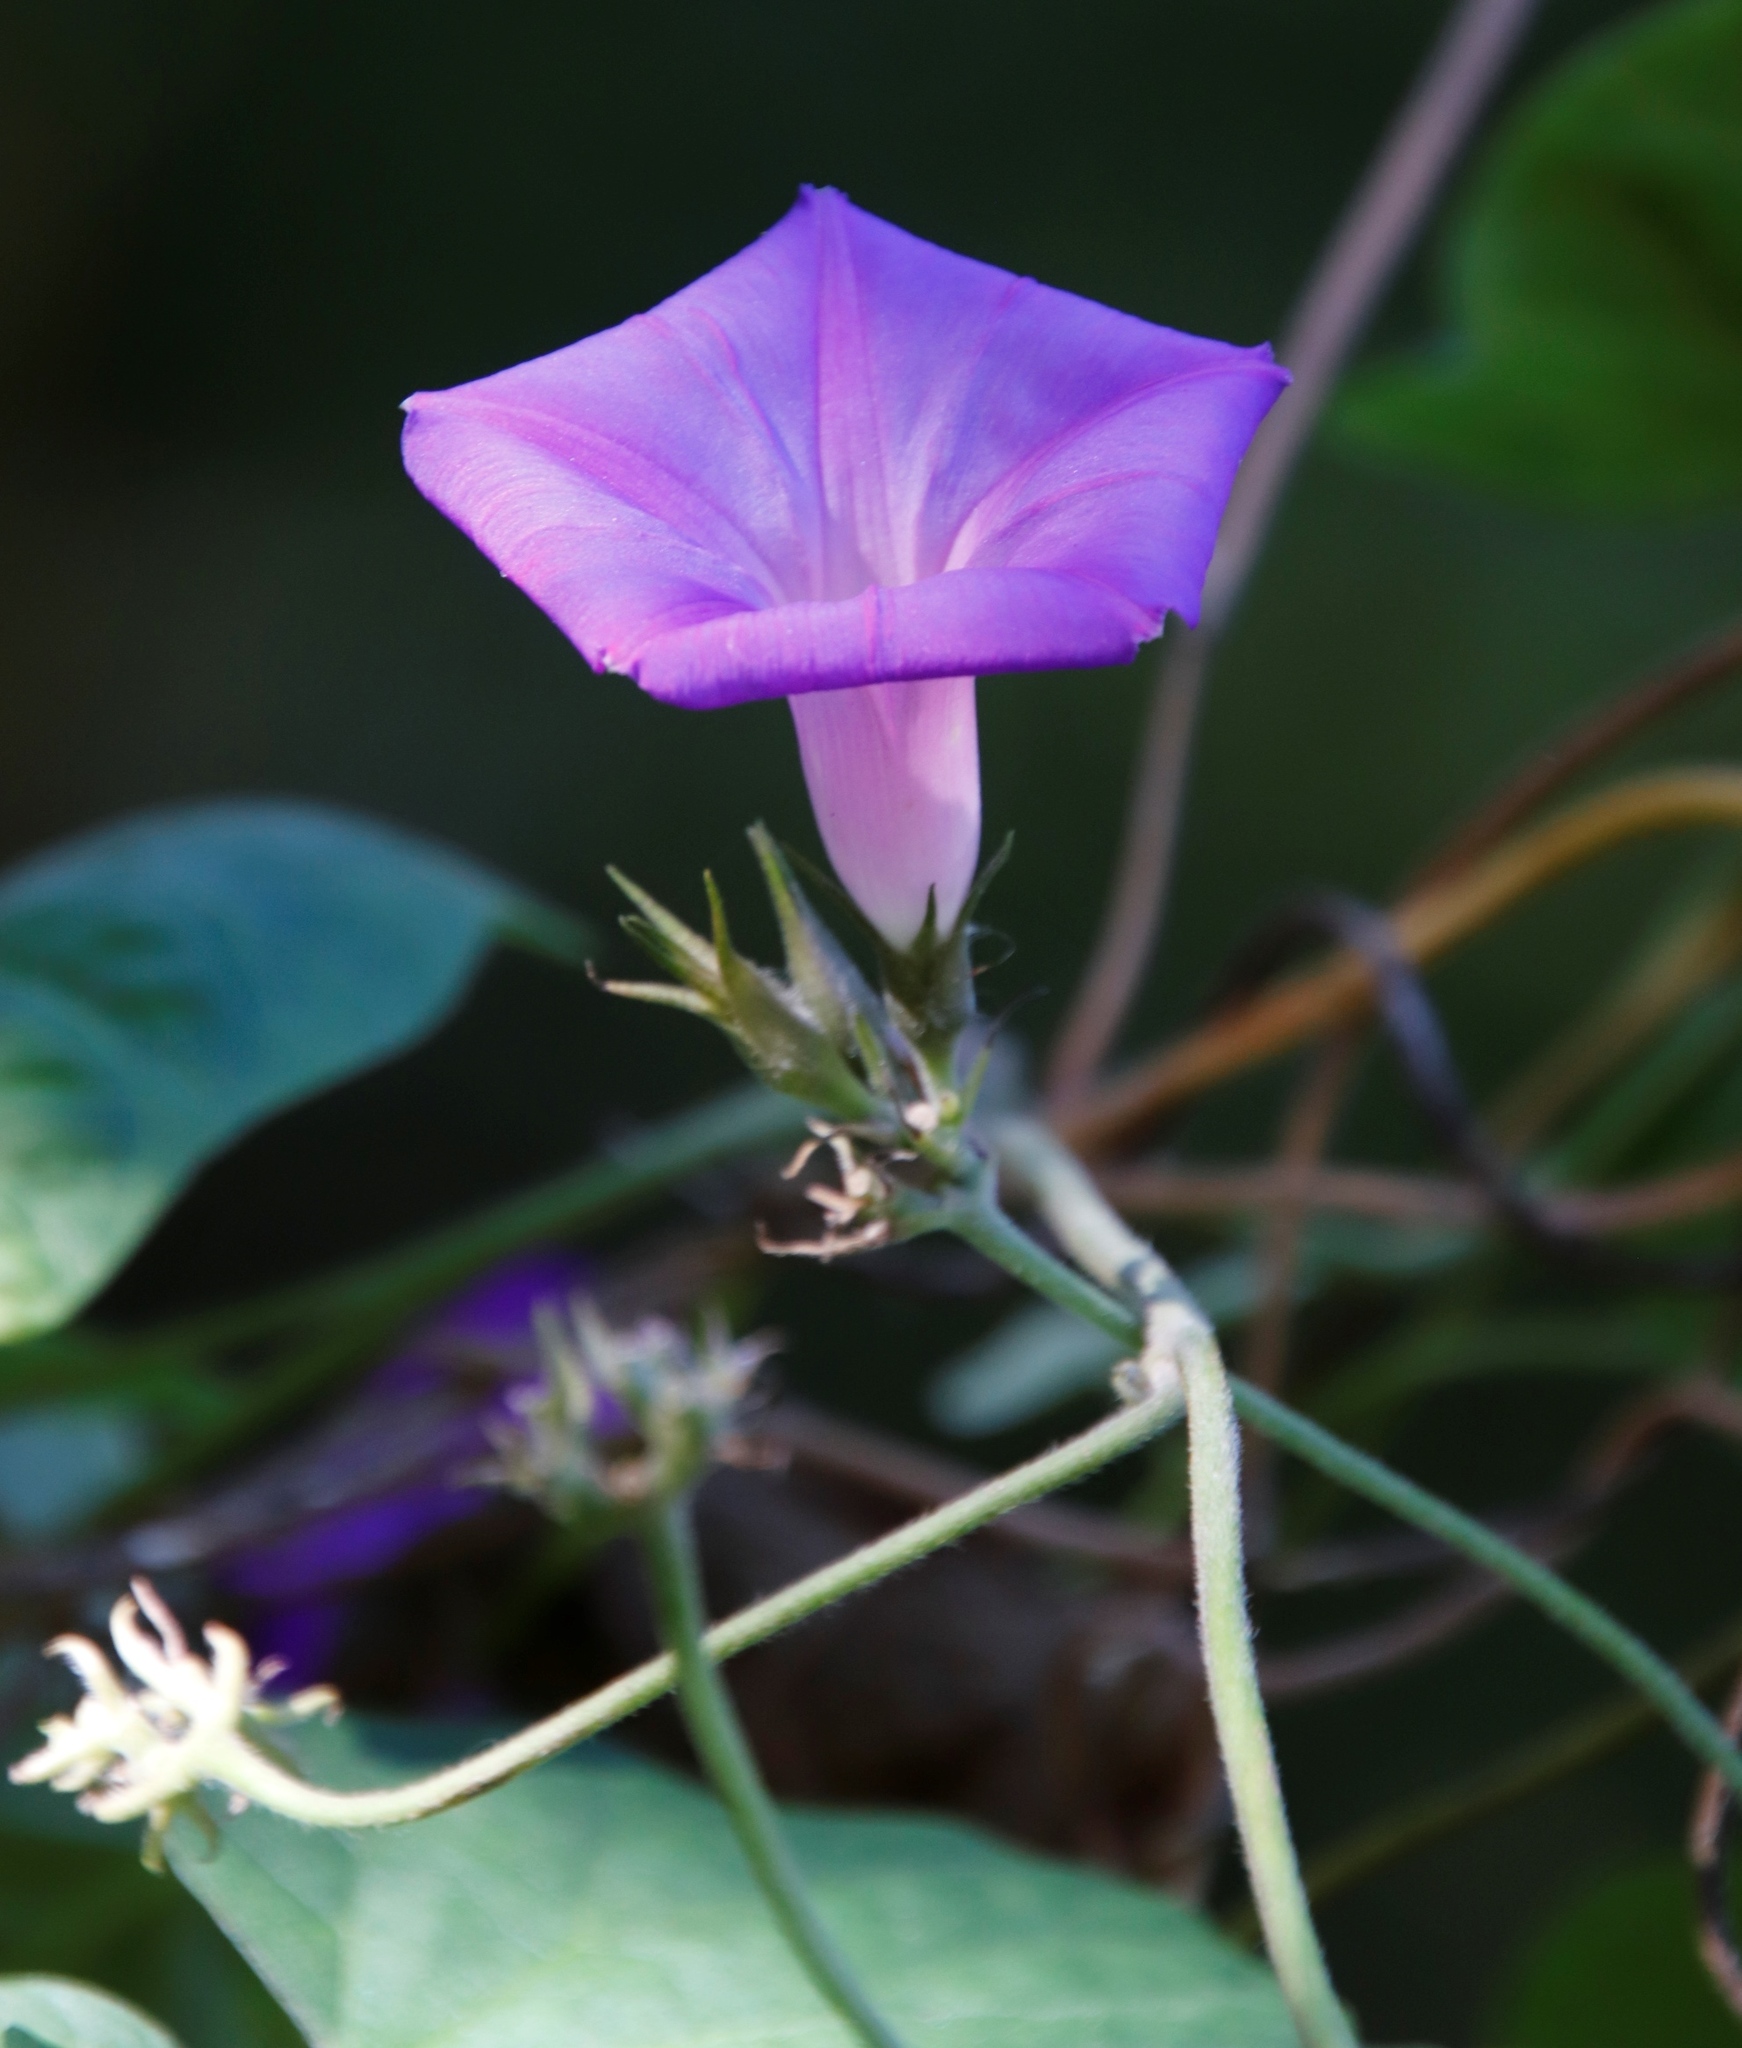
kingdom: Plantae
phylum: Tracheophyta
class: Magnoliopsida
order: Solanales
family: Convolvulaceae
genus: Ipomoea
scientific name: Ipomoea indica
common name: Blue dawnflower
